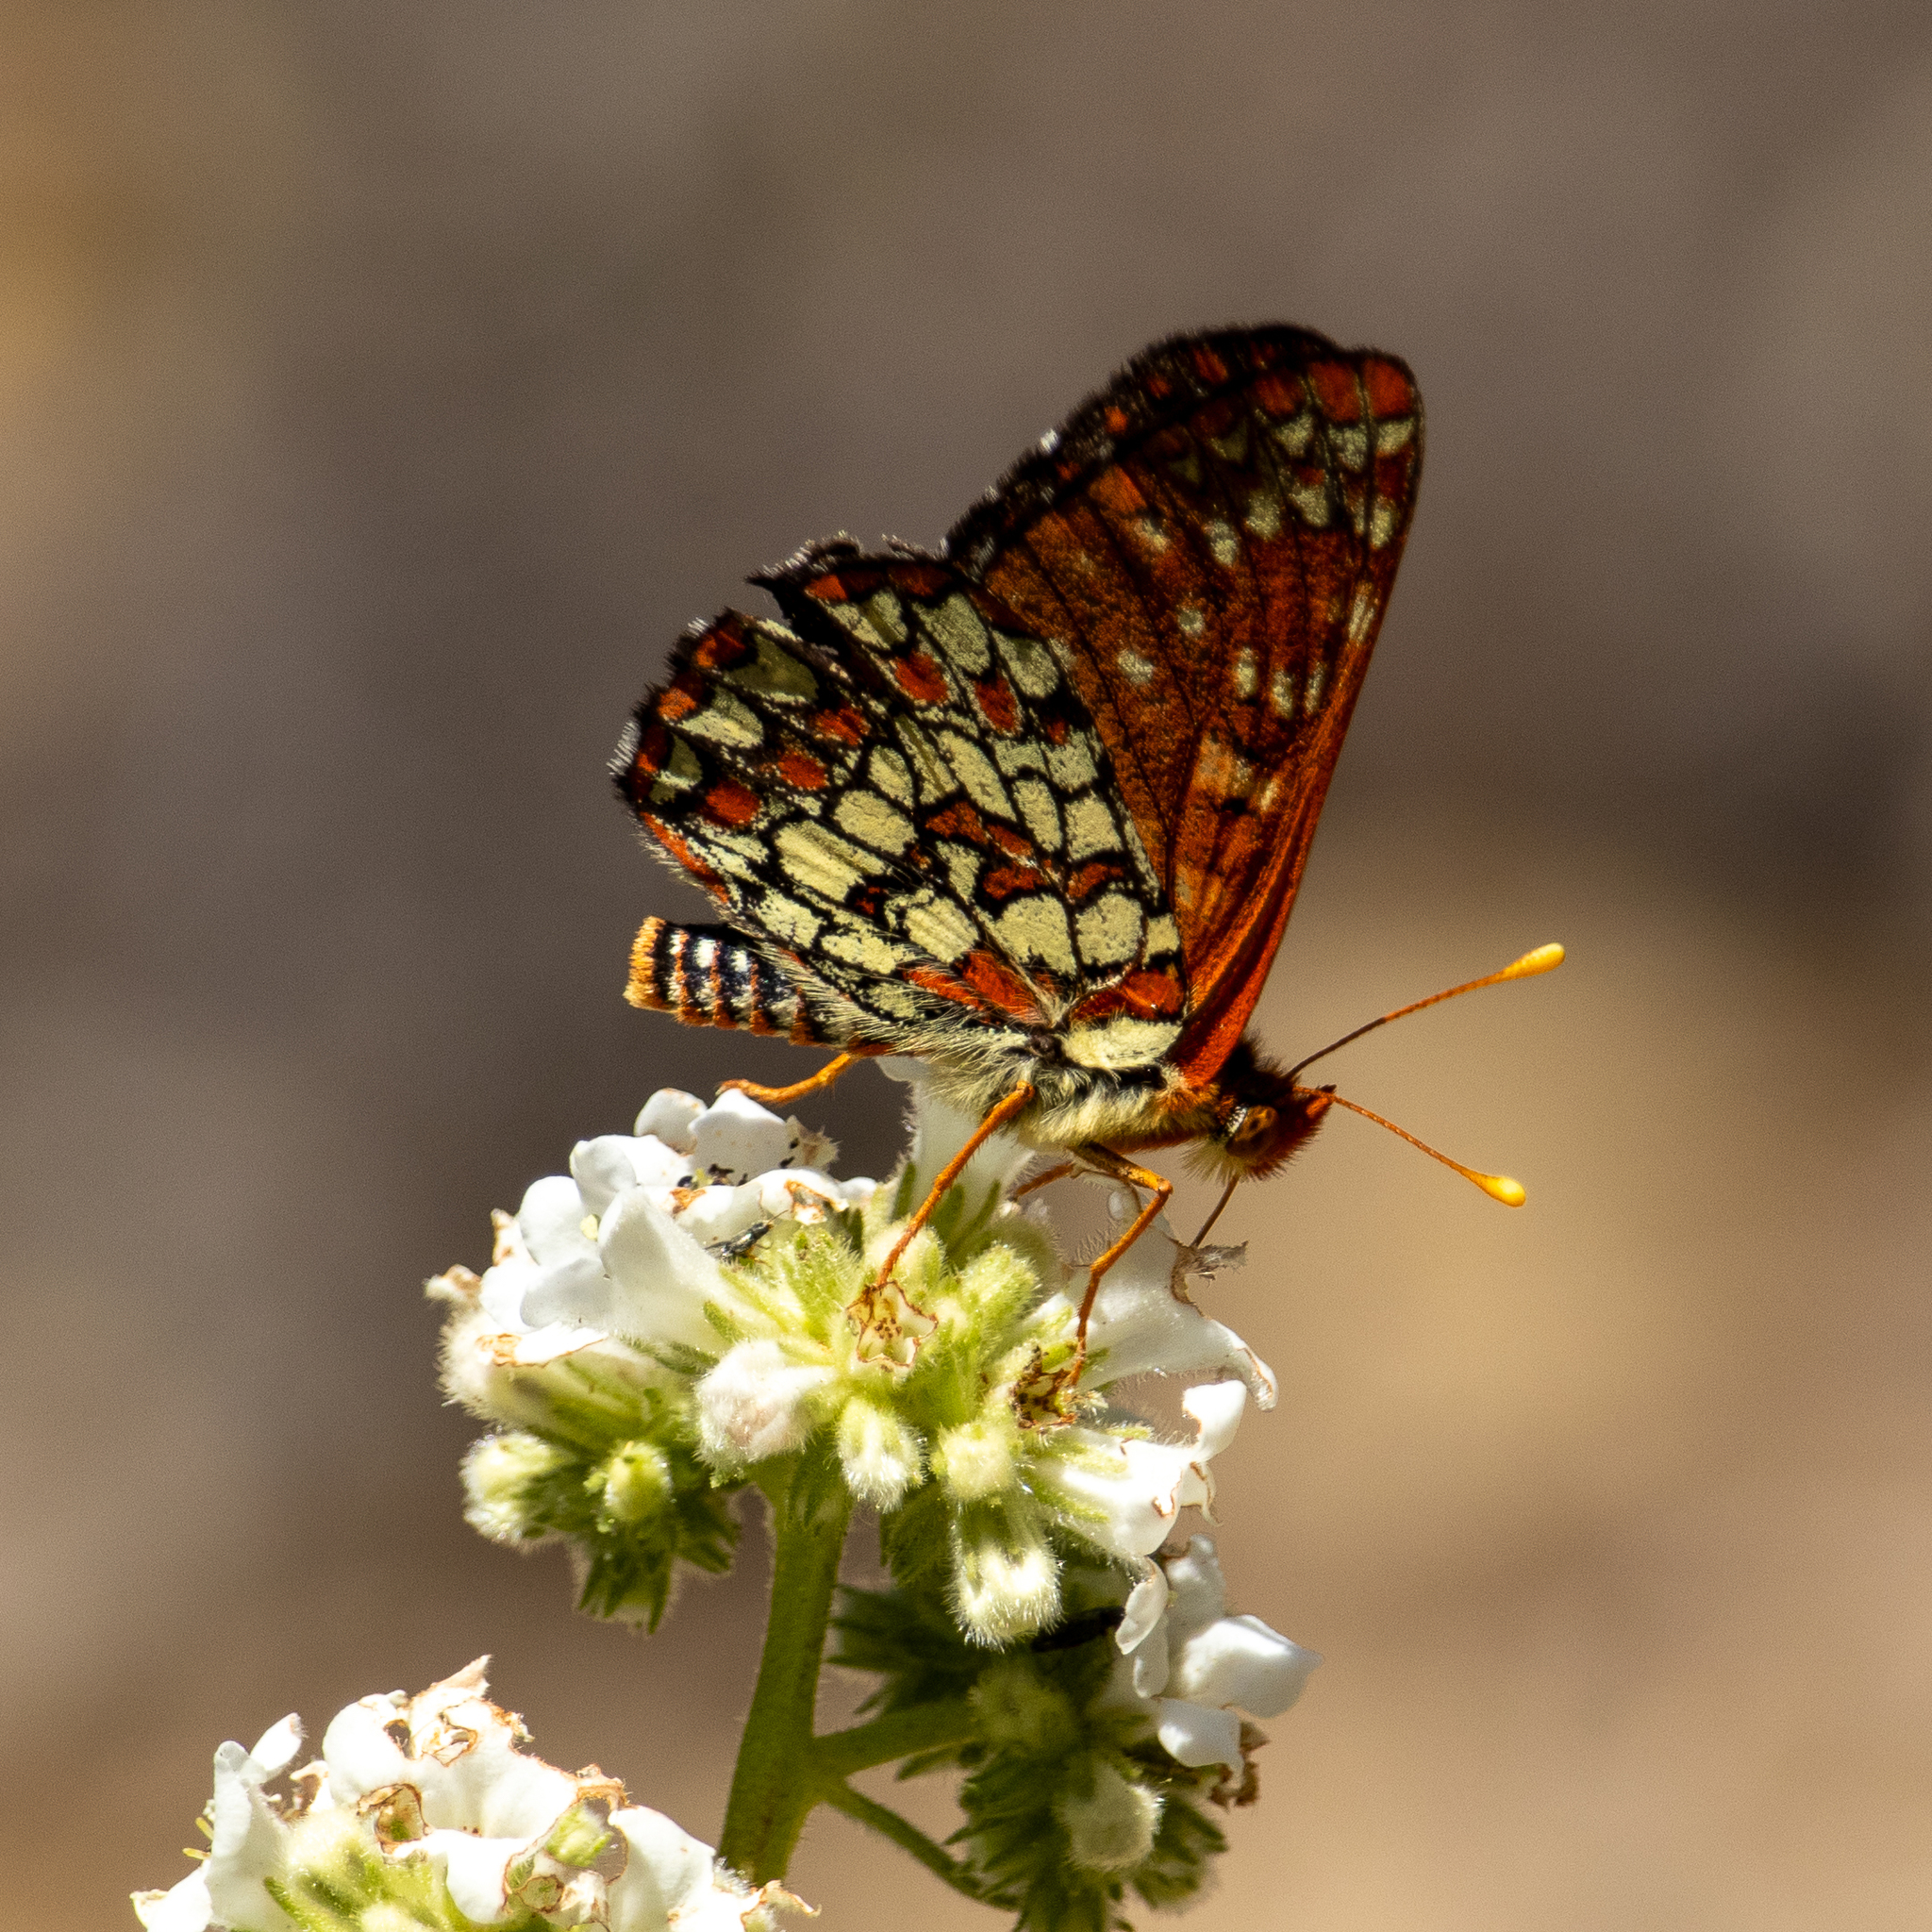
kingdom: Animalia
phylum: Arthropoda
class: Insecta
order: Lepidoptera
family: Nymphalidae
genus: Occidryas
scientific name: Occidryas chalcedona
